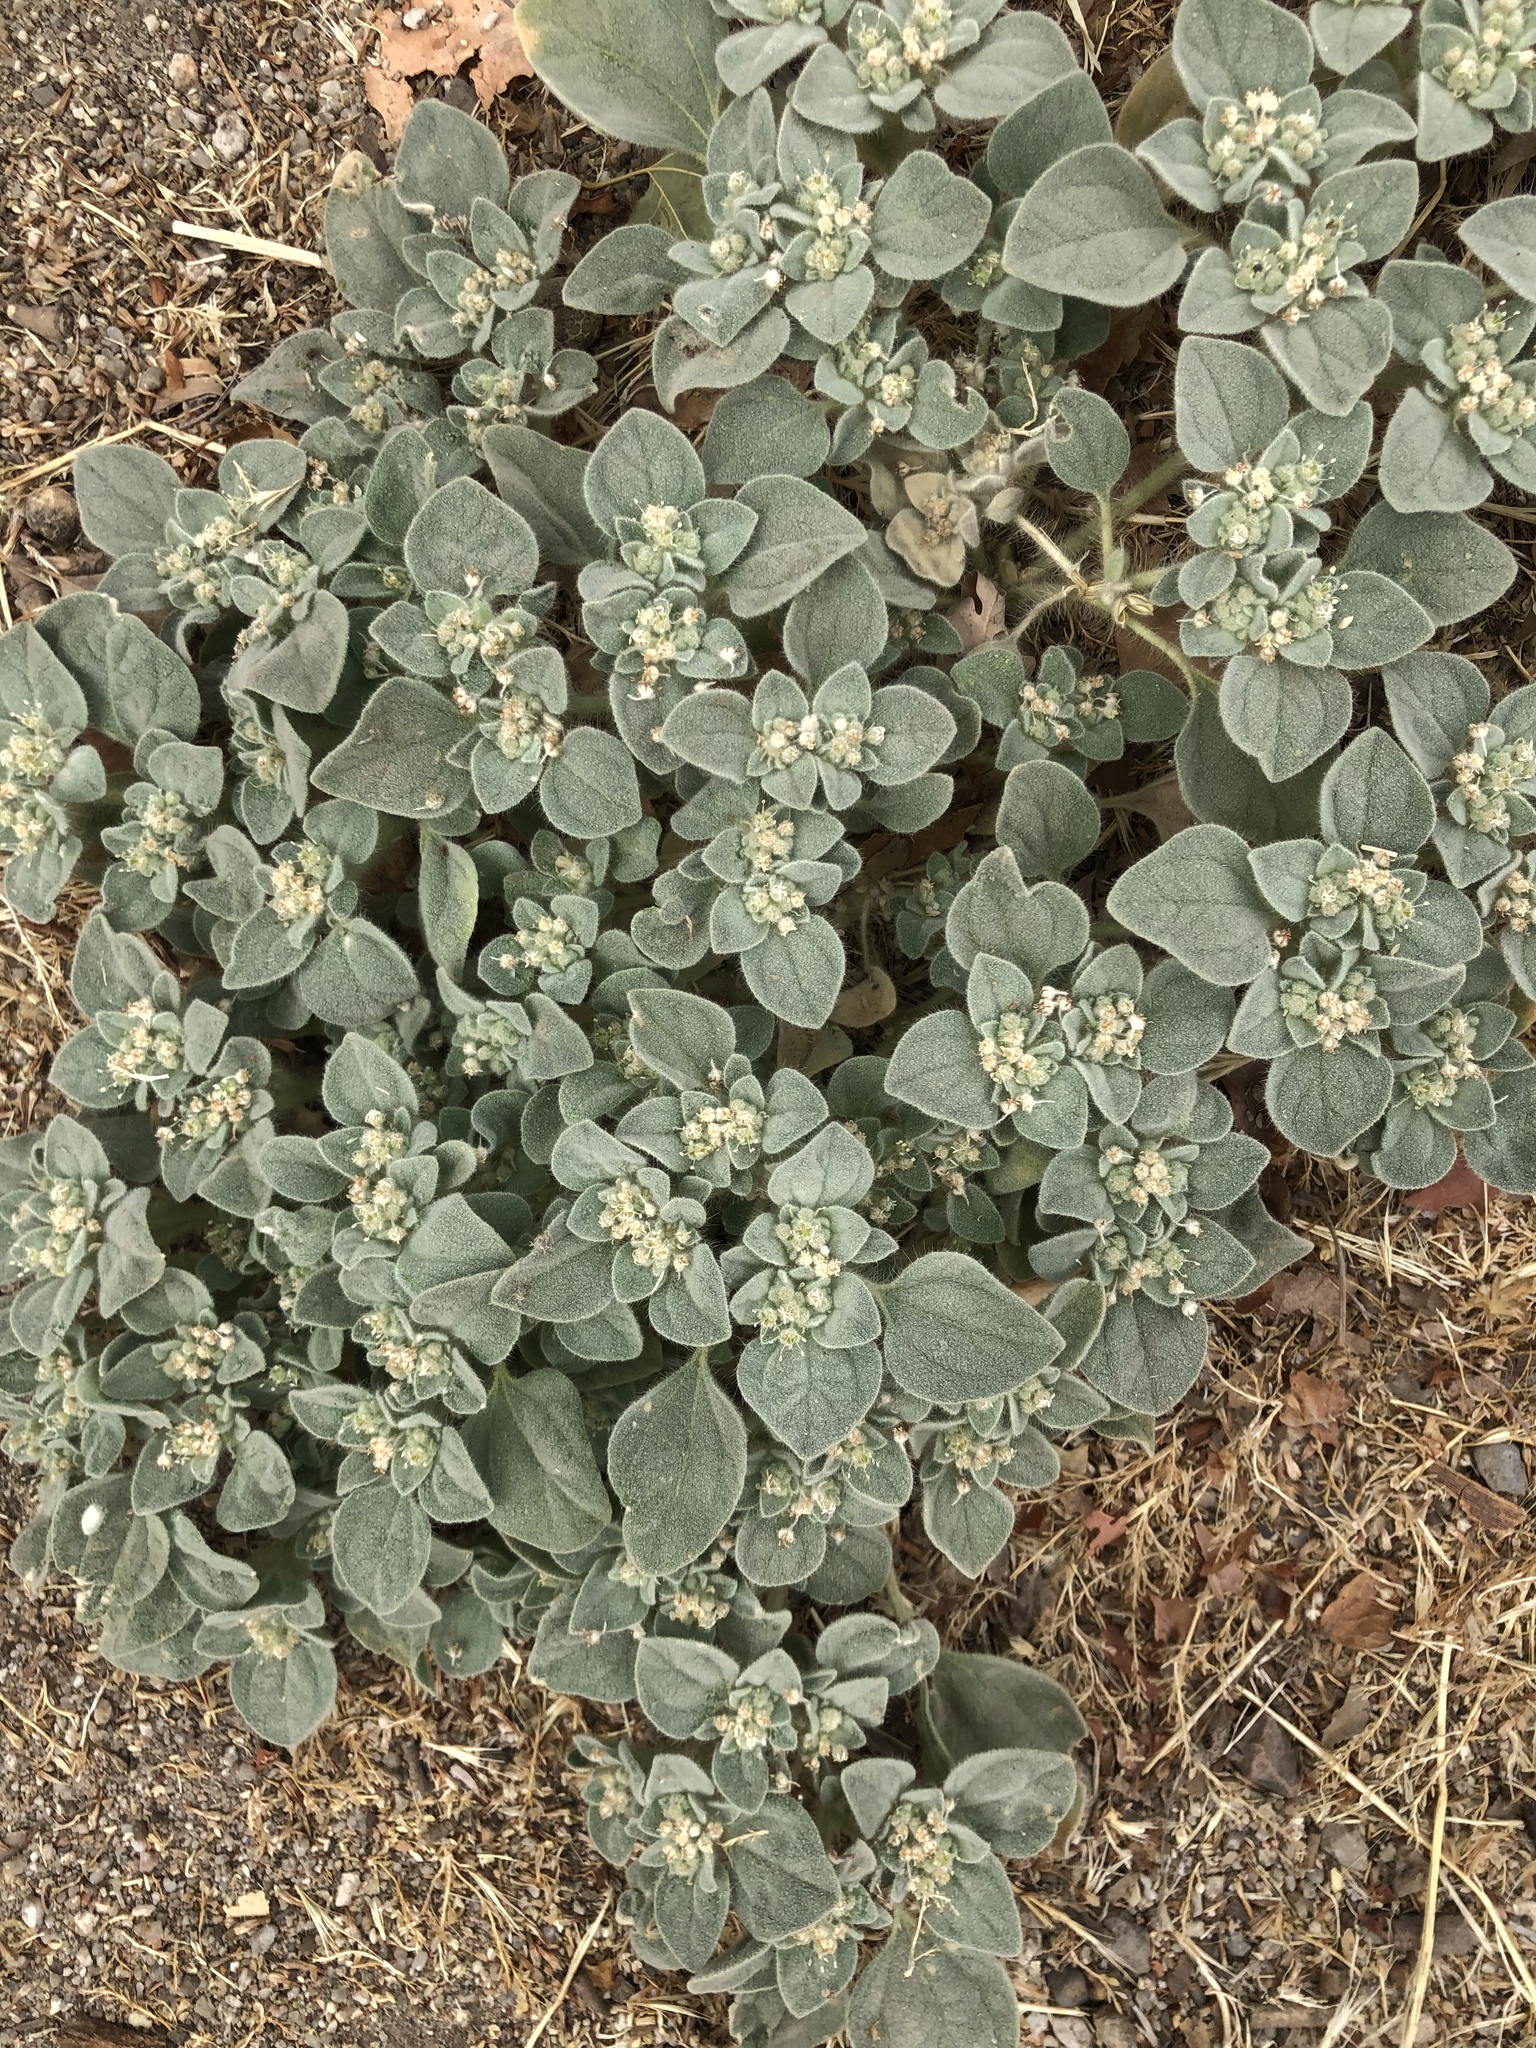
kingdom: Plantae
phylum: Tracheophyta
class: Magnoliopsida
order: Malpighiales
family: Euphorbiaceae
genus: Croton
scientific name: Croton setiger
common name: Dove weed
